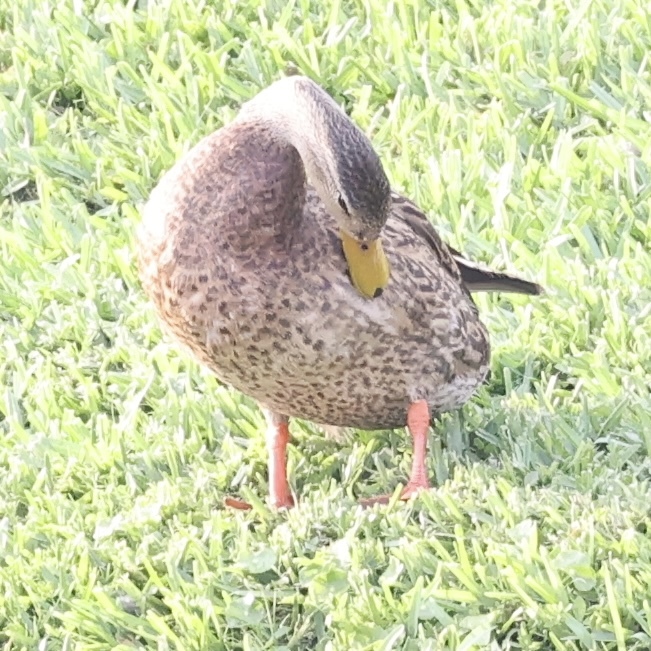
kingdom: Animalia
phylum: Chordata
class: Aves
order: Anseriformes
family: Anatidae
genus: Anas
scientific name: Anas
